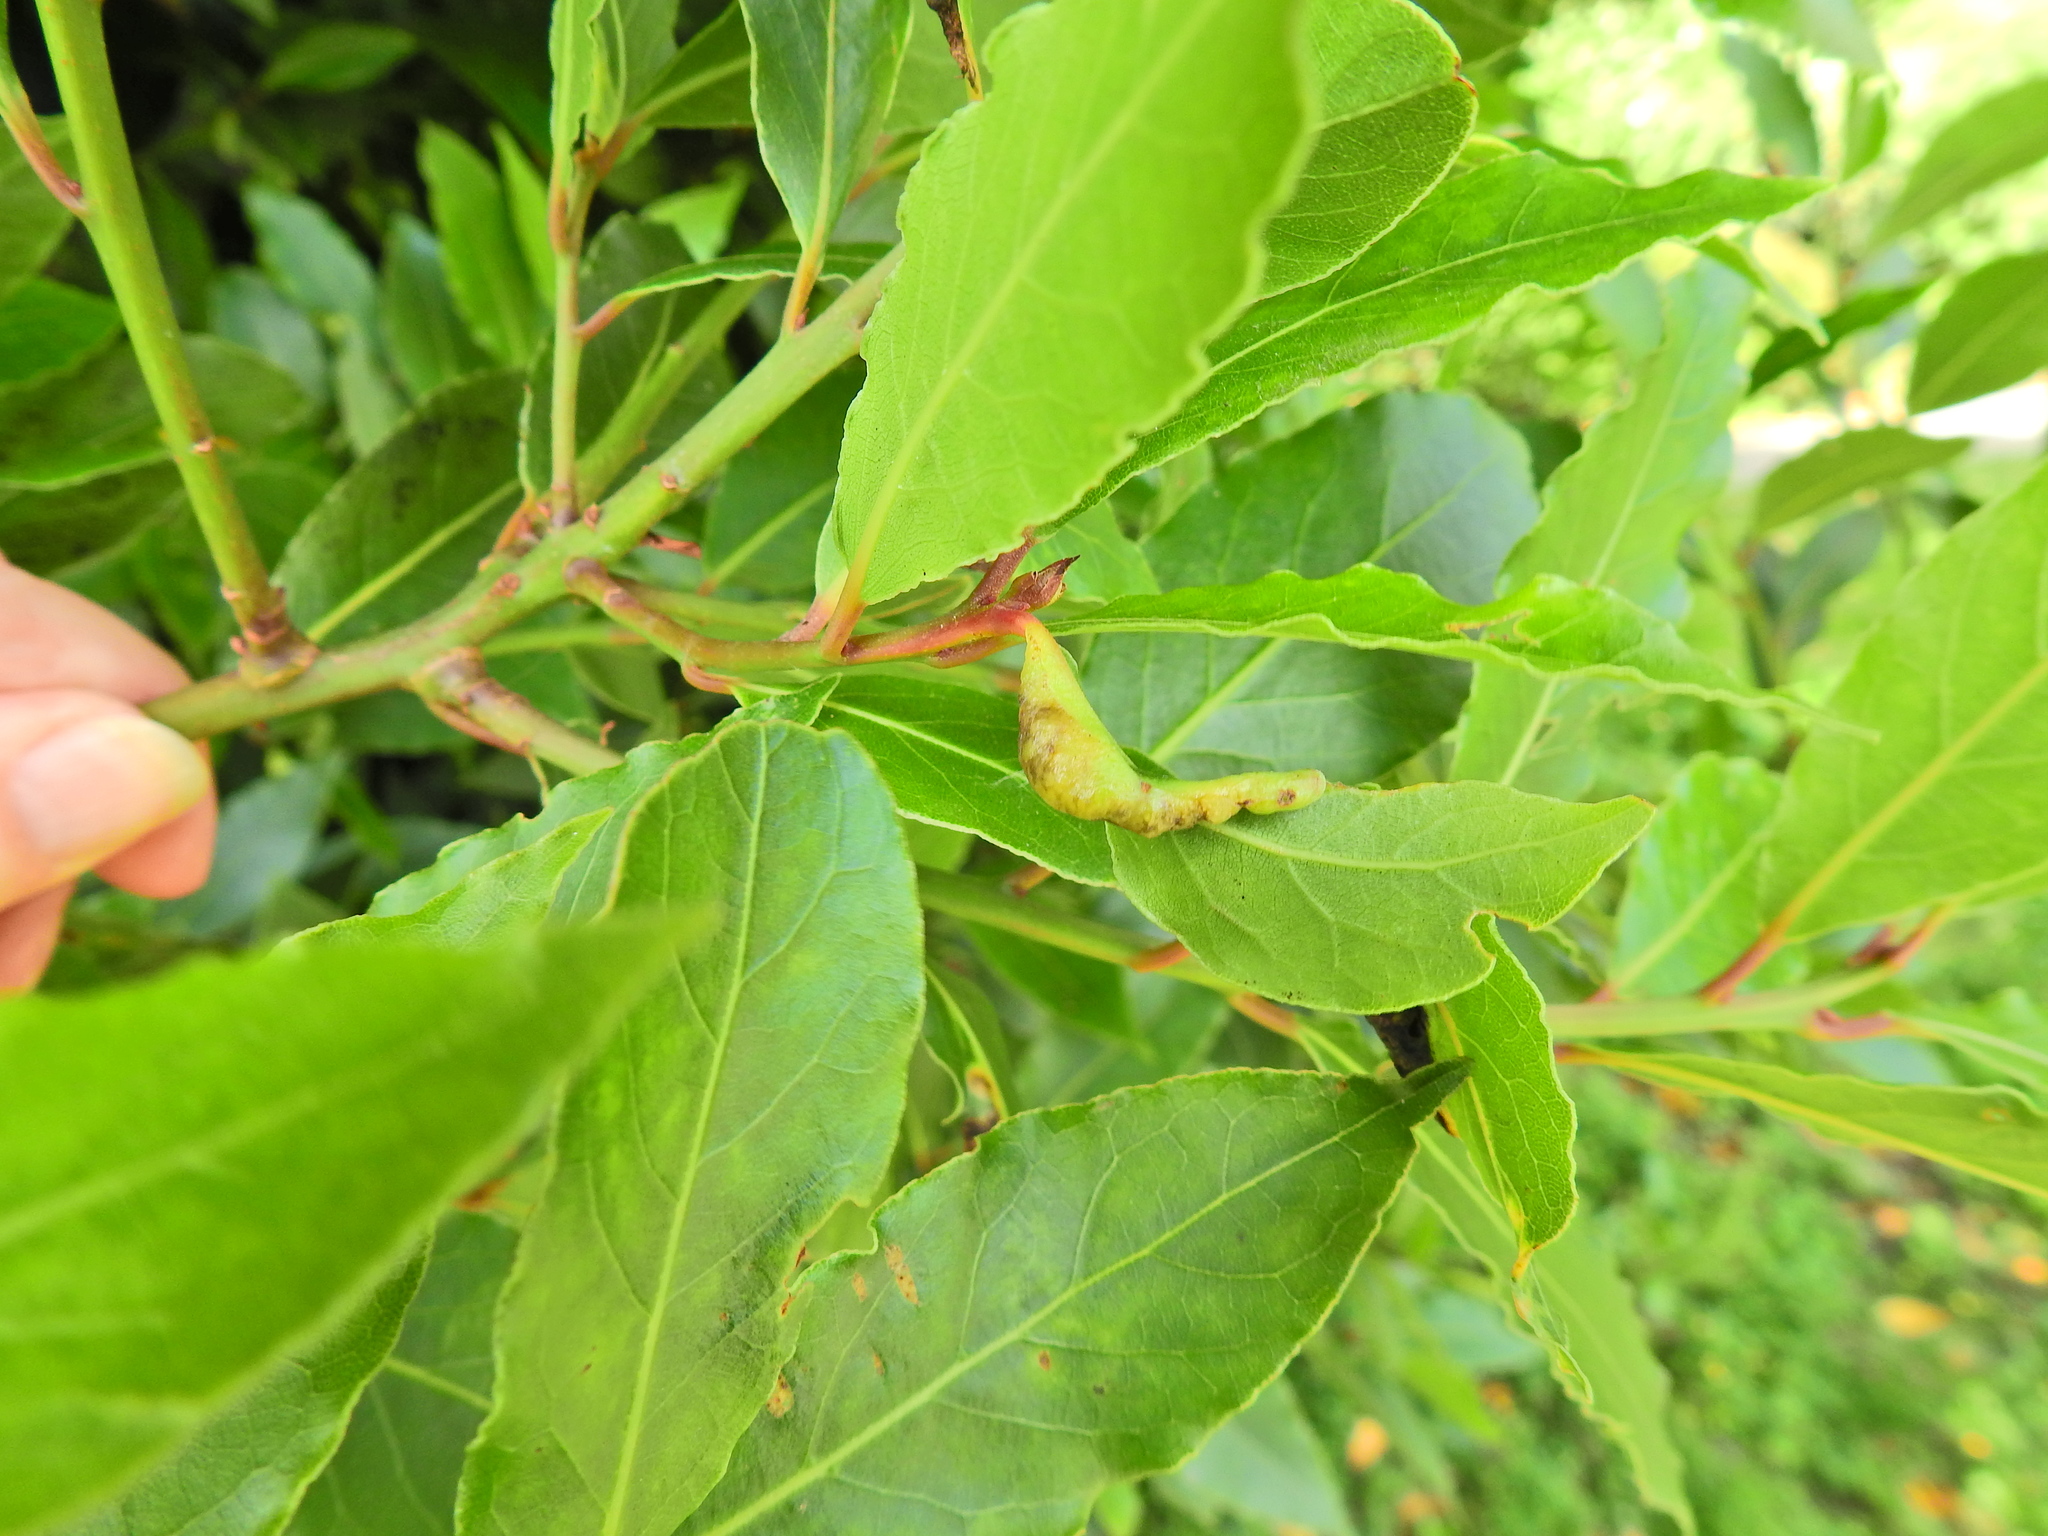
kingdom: Animalia
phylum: Arthropoda
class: Insecta
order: Hemiptera
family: Triozidae
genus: Lauritrioza
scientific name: Lauritrioza alacris
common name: Laurel psyllid
